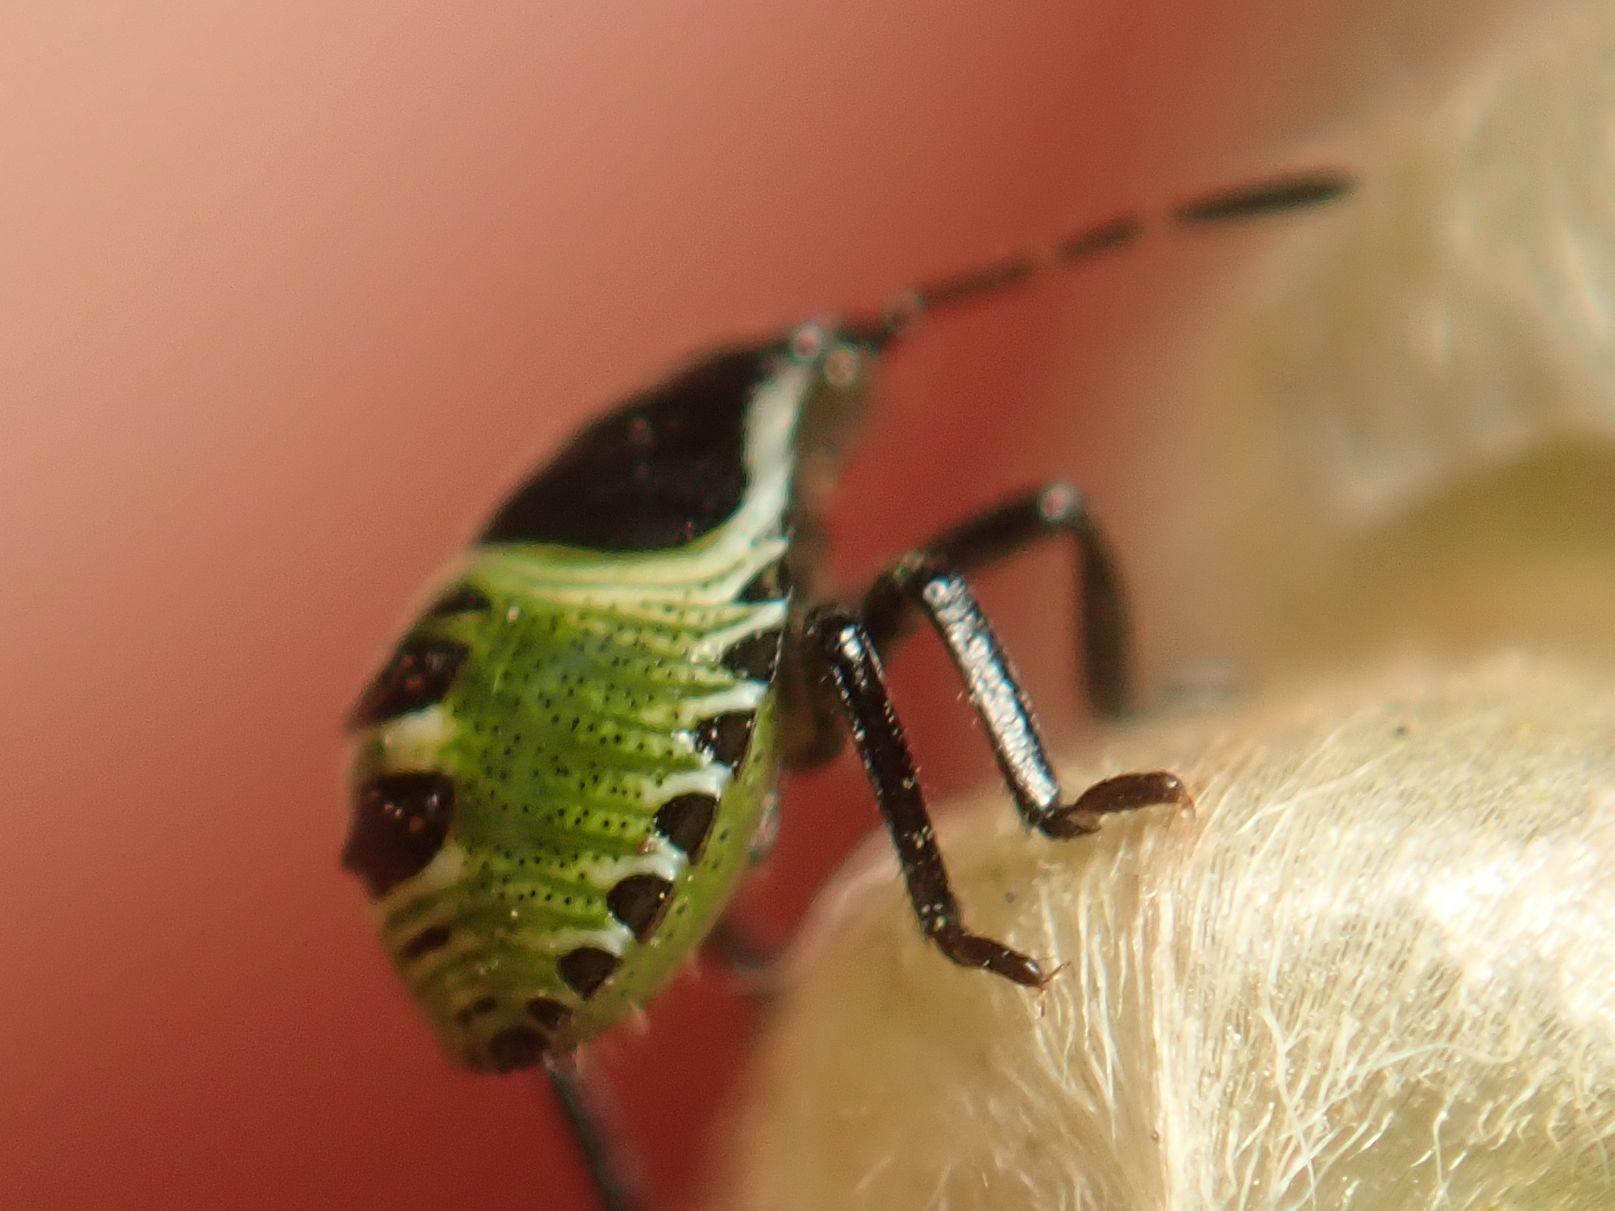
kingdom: Animalia
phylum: Arthropoda
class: Insecta
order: Hemiptera
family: Pentatomidae
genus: Palomena
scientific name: Palomena prasina
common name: Green shieldbug
